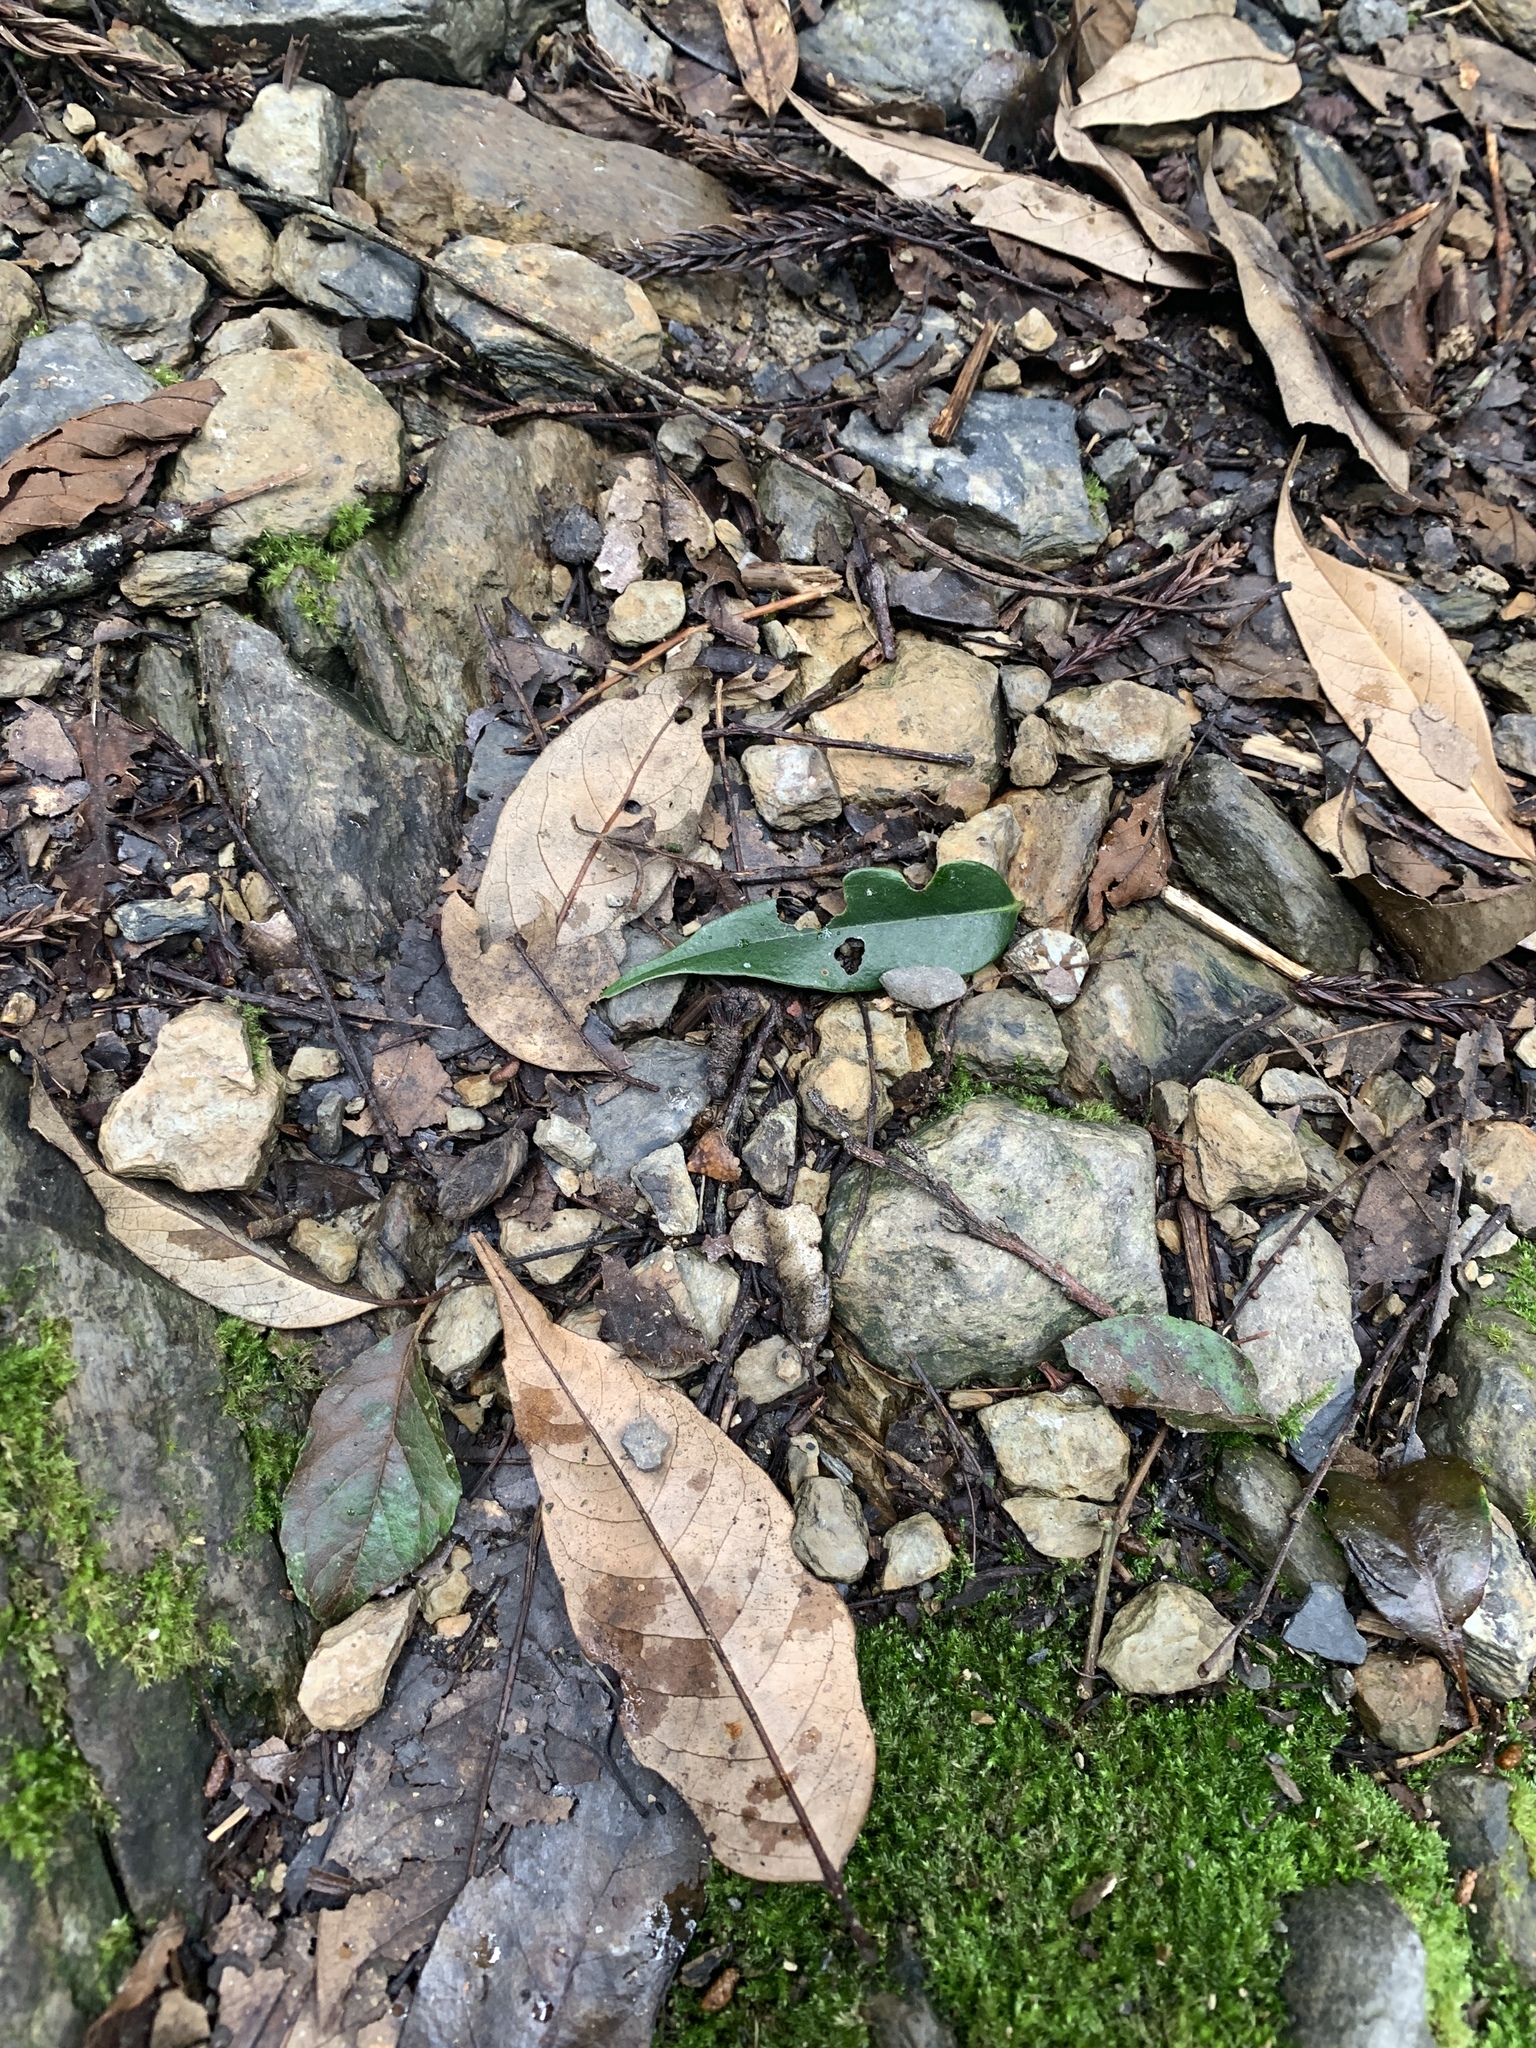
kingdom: Plantae
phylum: Tracheophyta
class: Magnoliopsida
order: Fagales
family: Fagaceae
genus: Castanopsis
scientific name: Castanopsis carlesii
